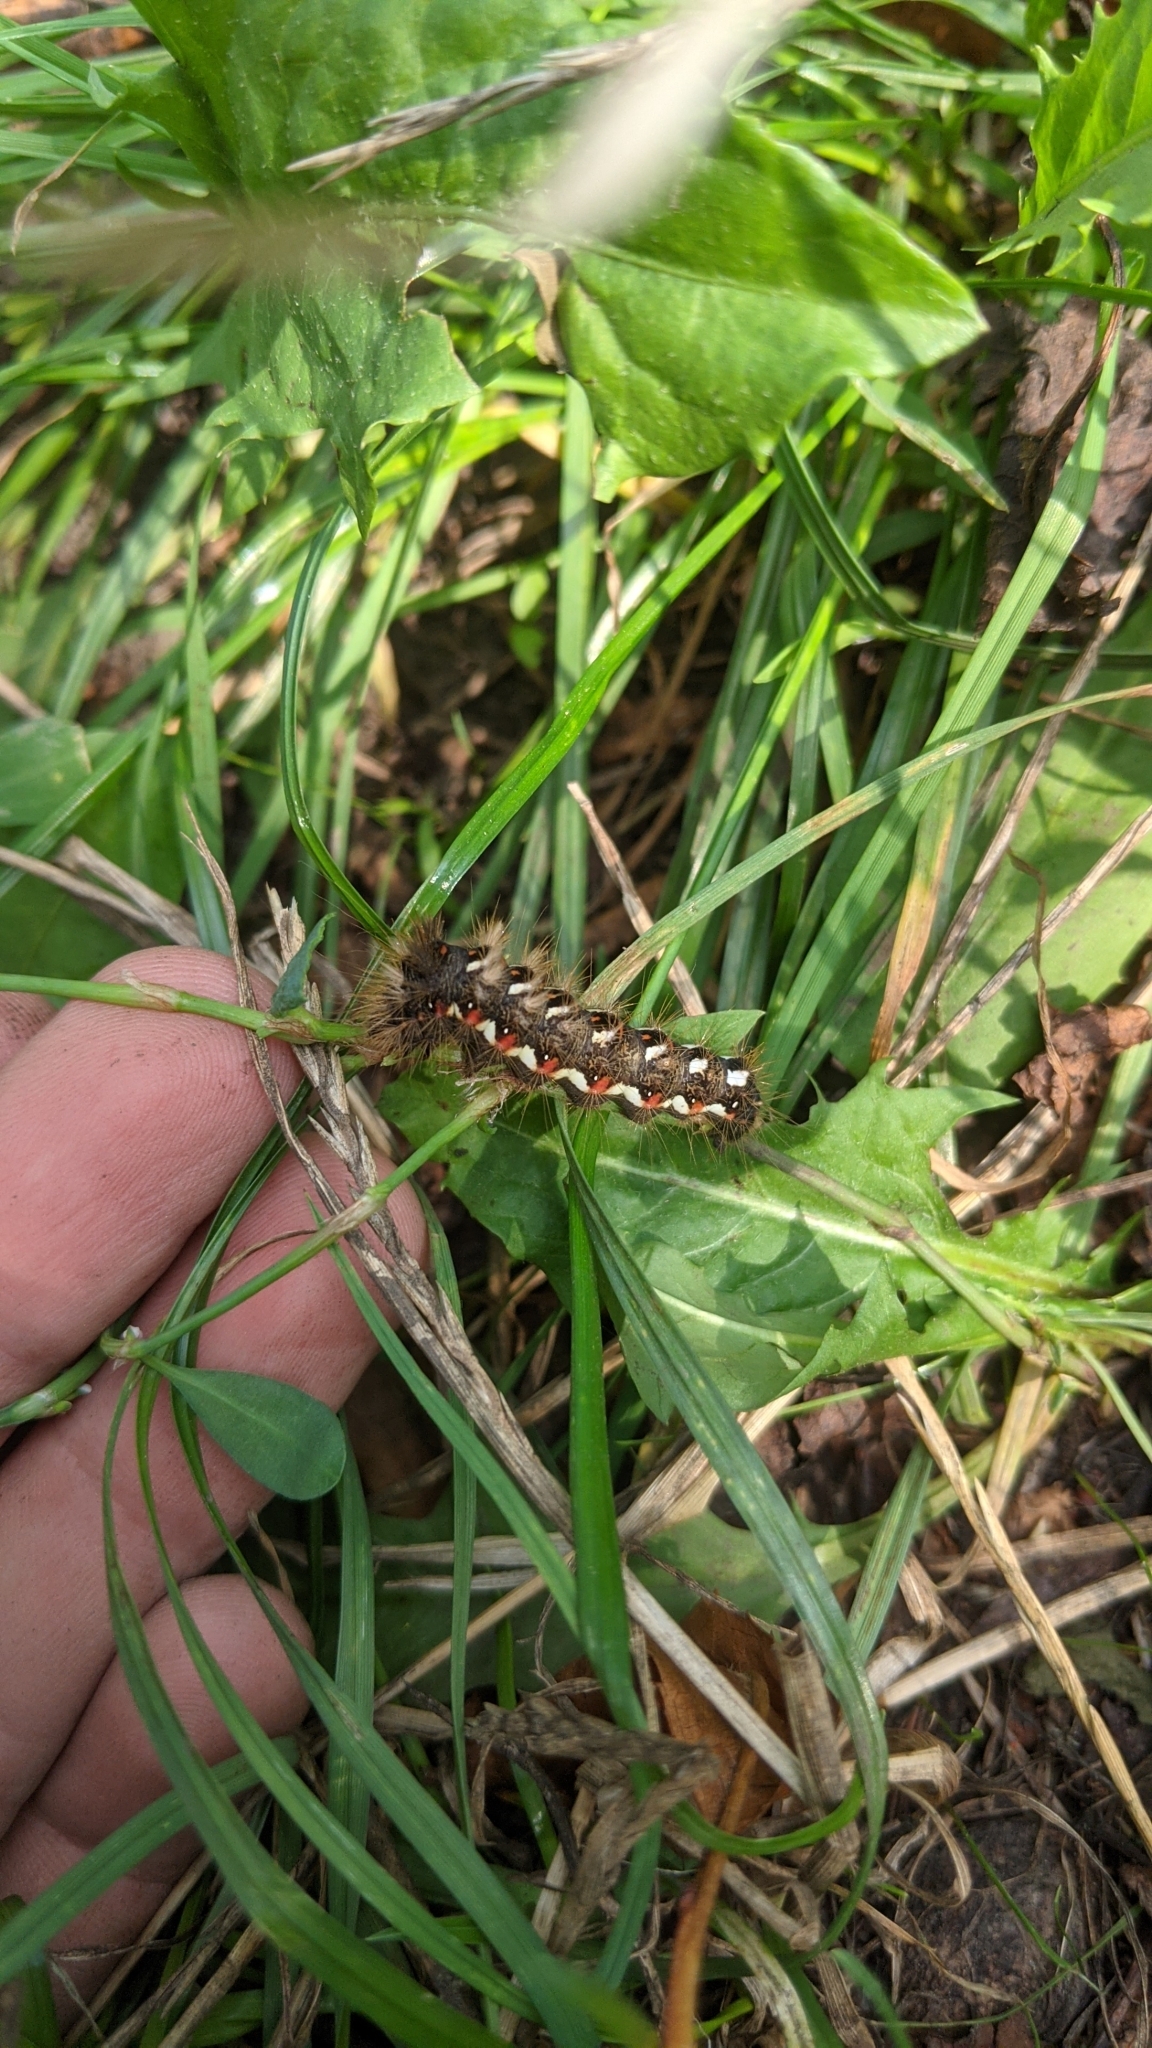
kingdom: Animalia
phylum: Arthropoda
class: Insecta
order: Lepidoptera
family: Noctuidae
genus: Acronicta
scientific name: Acronicta rumicis
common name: Knot grass
